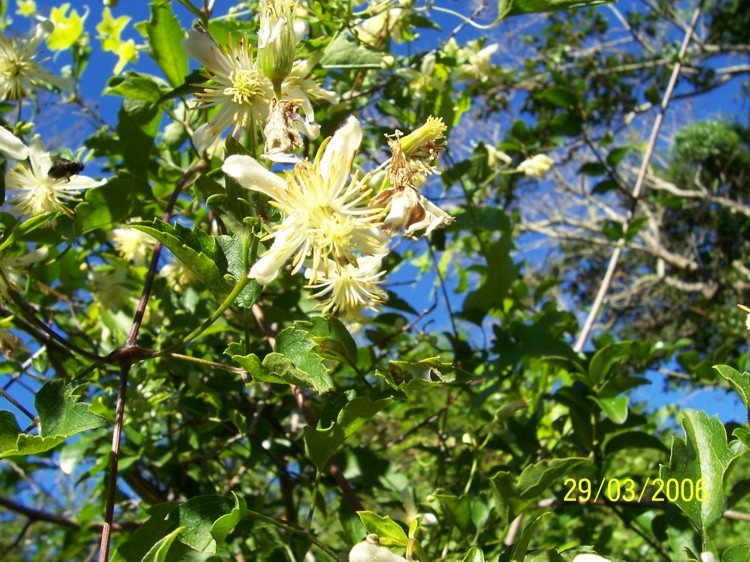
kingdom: Plantae
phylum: Tracheophyta
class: Magnoliopsida
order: Ranunculales
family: Ranunculaceae
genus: Clematis
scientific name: Clematis brachiata
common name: Traveler's-joy
